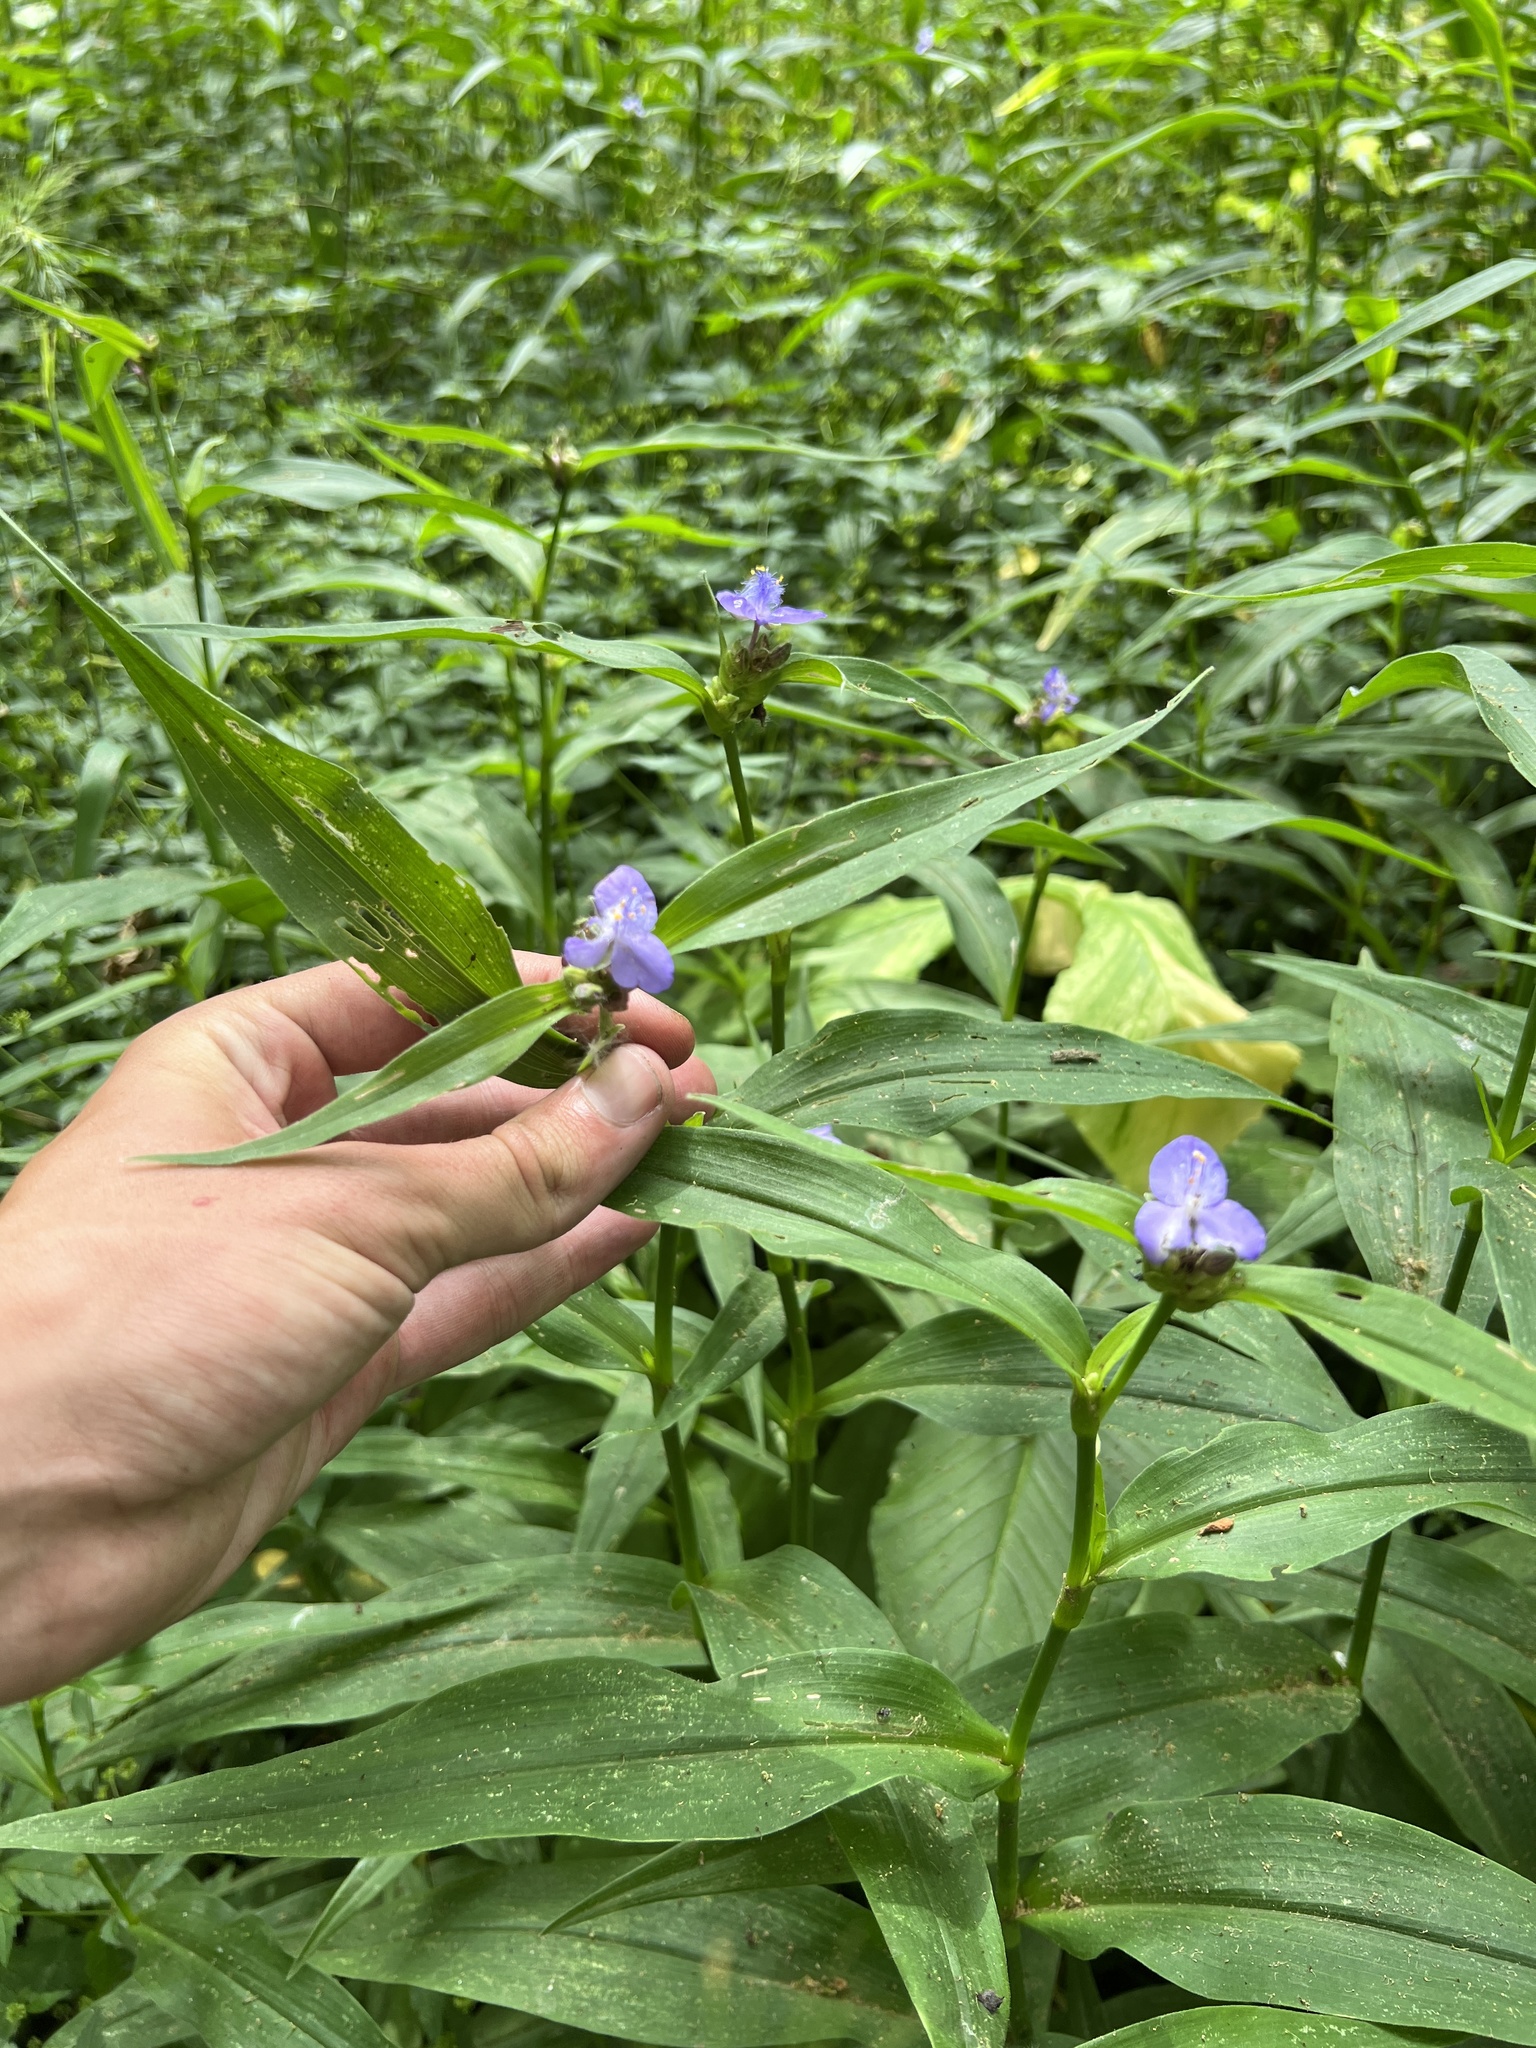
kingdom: Plantae
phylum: Tracheophyta
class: Liliopsida
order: Commelinales
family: Commelinaceae
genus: Tradescantia
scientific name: Tradescantia subaspera
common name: Wide-leaf spiderwort
